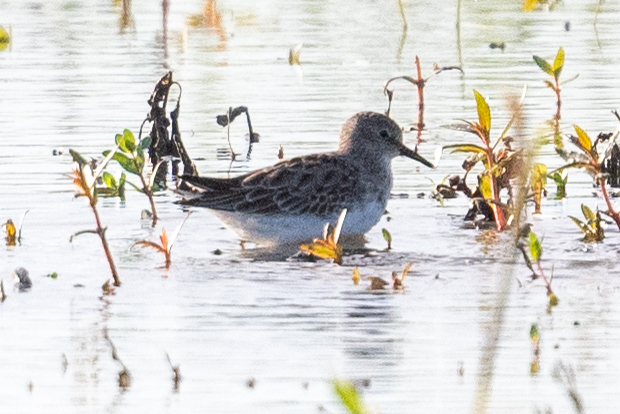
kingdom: Animalia
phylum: Chordata
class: Aves
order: Charadriiformes
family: Scolopacidae
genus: Calidris
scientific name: Calidris minutilla
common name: Least sandpiper
